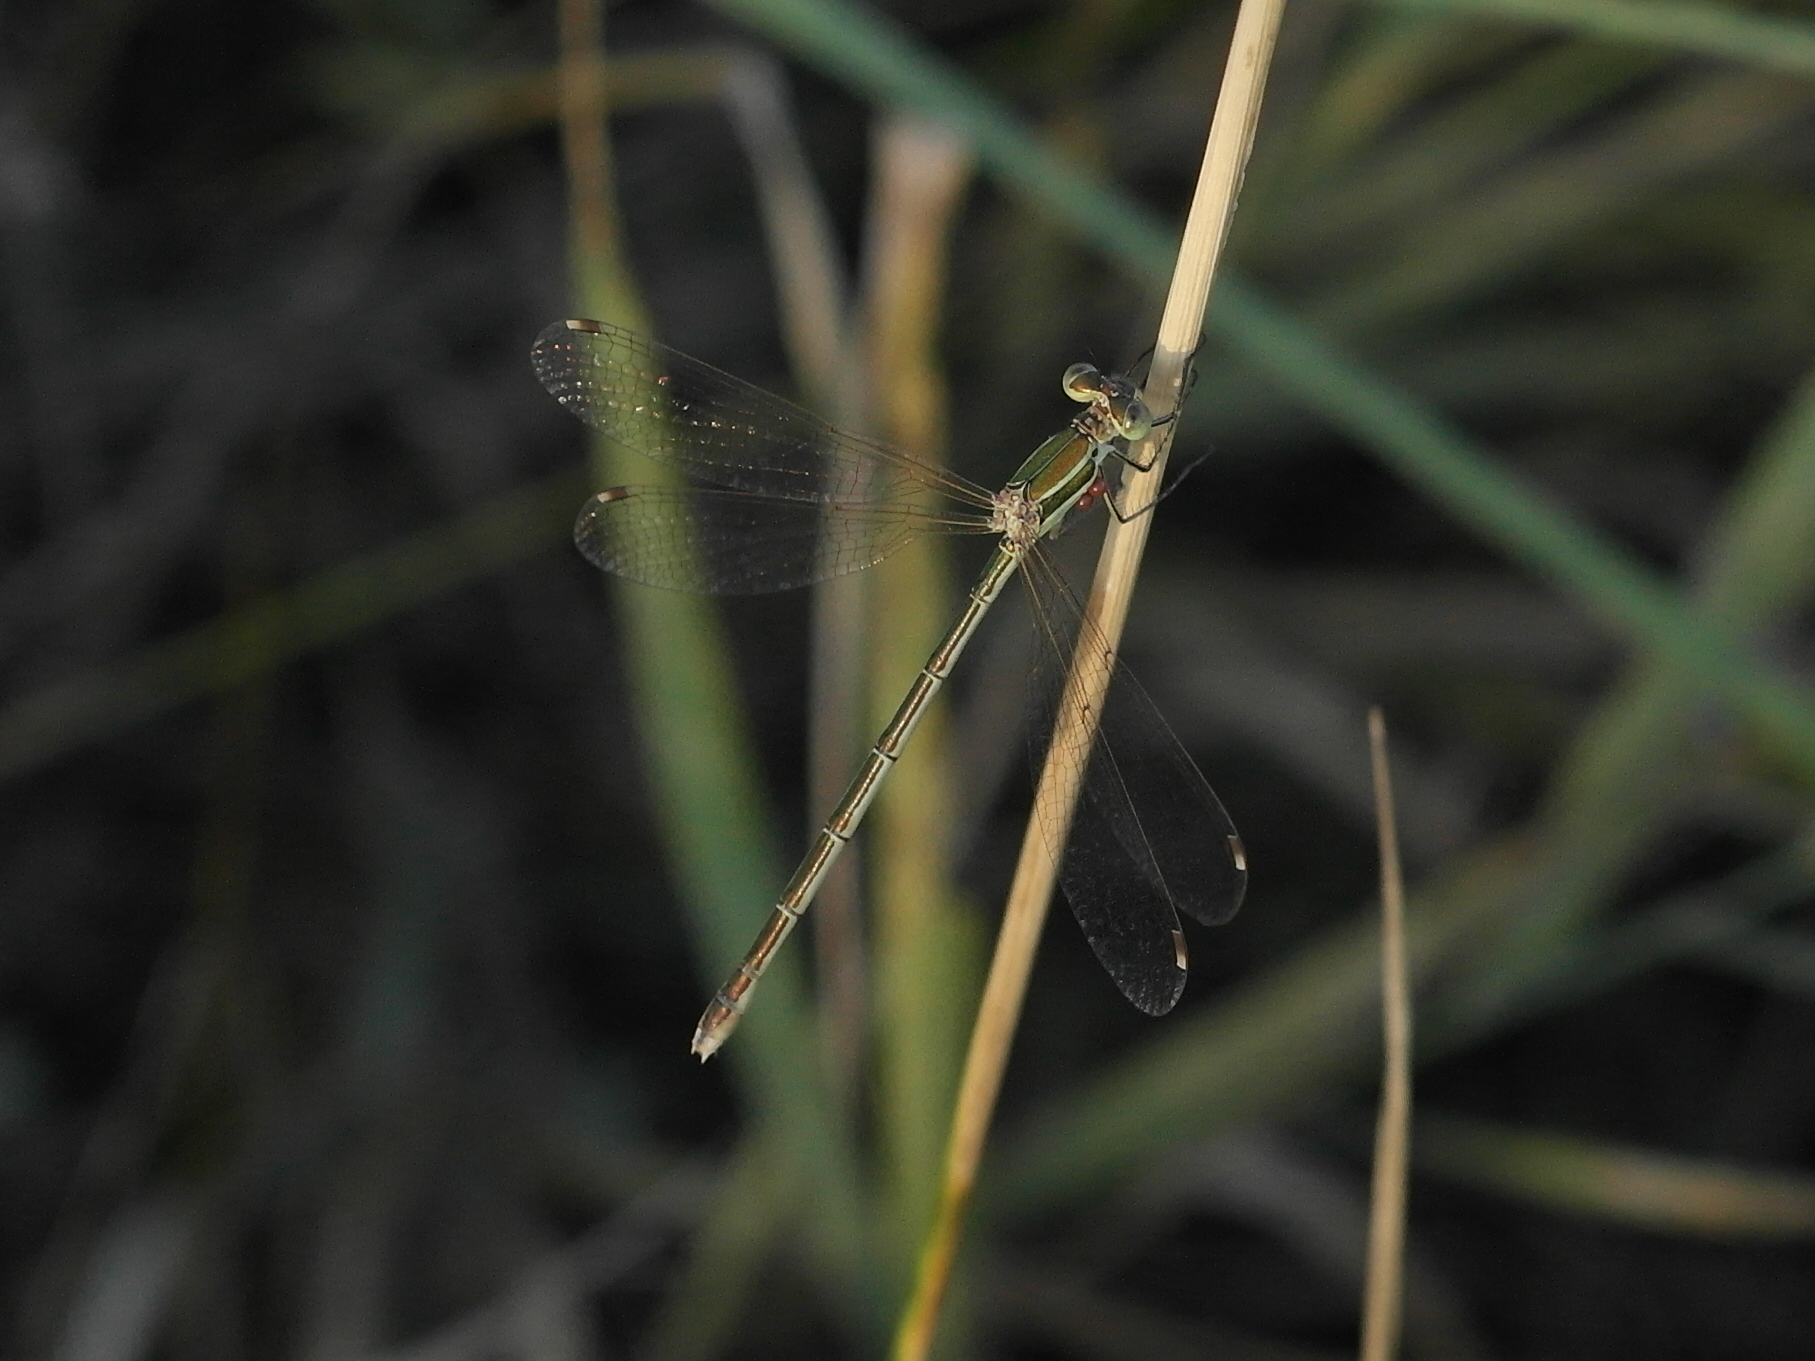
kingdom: Animalia
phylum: Arthropoda
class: Insecta
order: Odonata
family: Lestidae
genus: Lestes
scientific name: Lestes barbarus
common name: Migrant spreadwing
